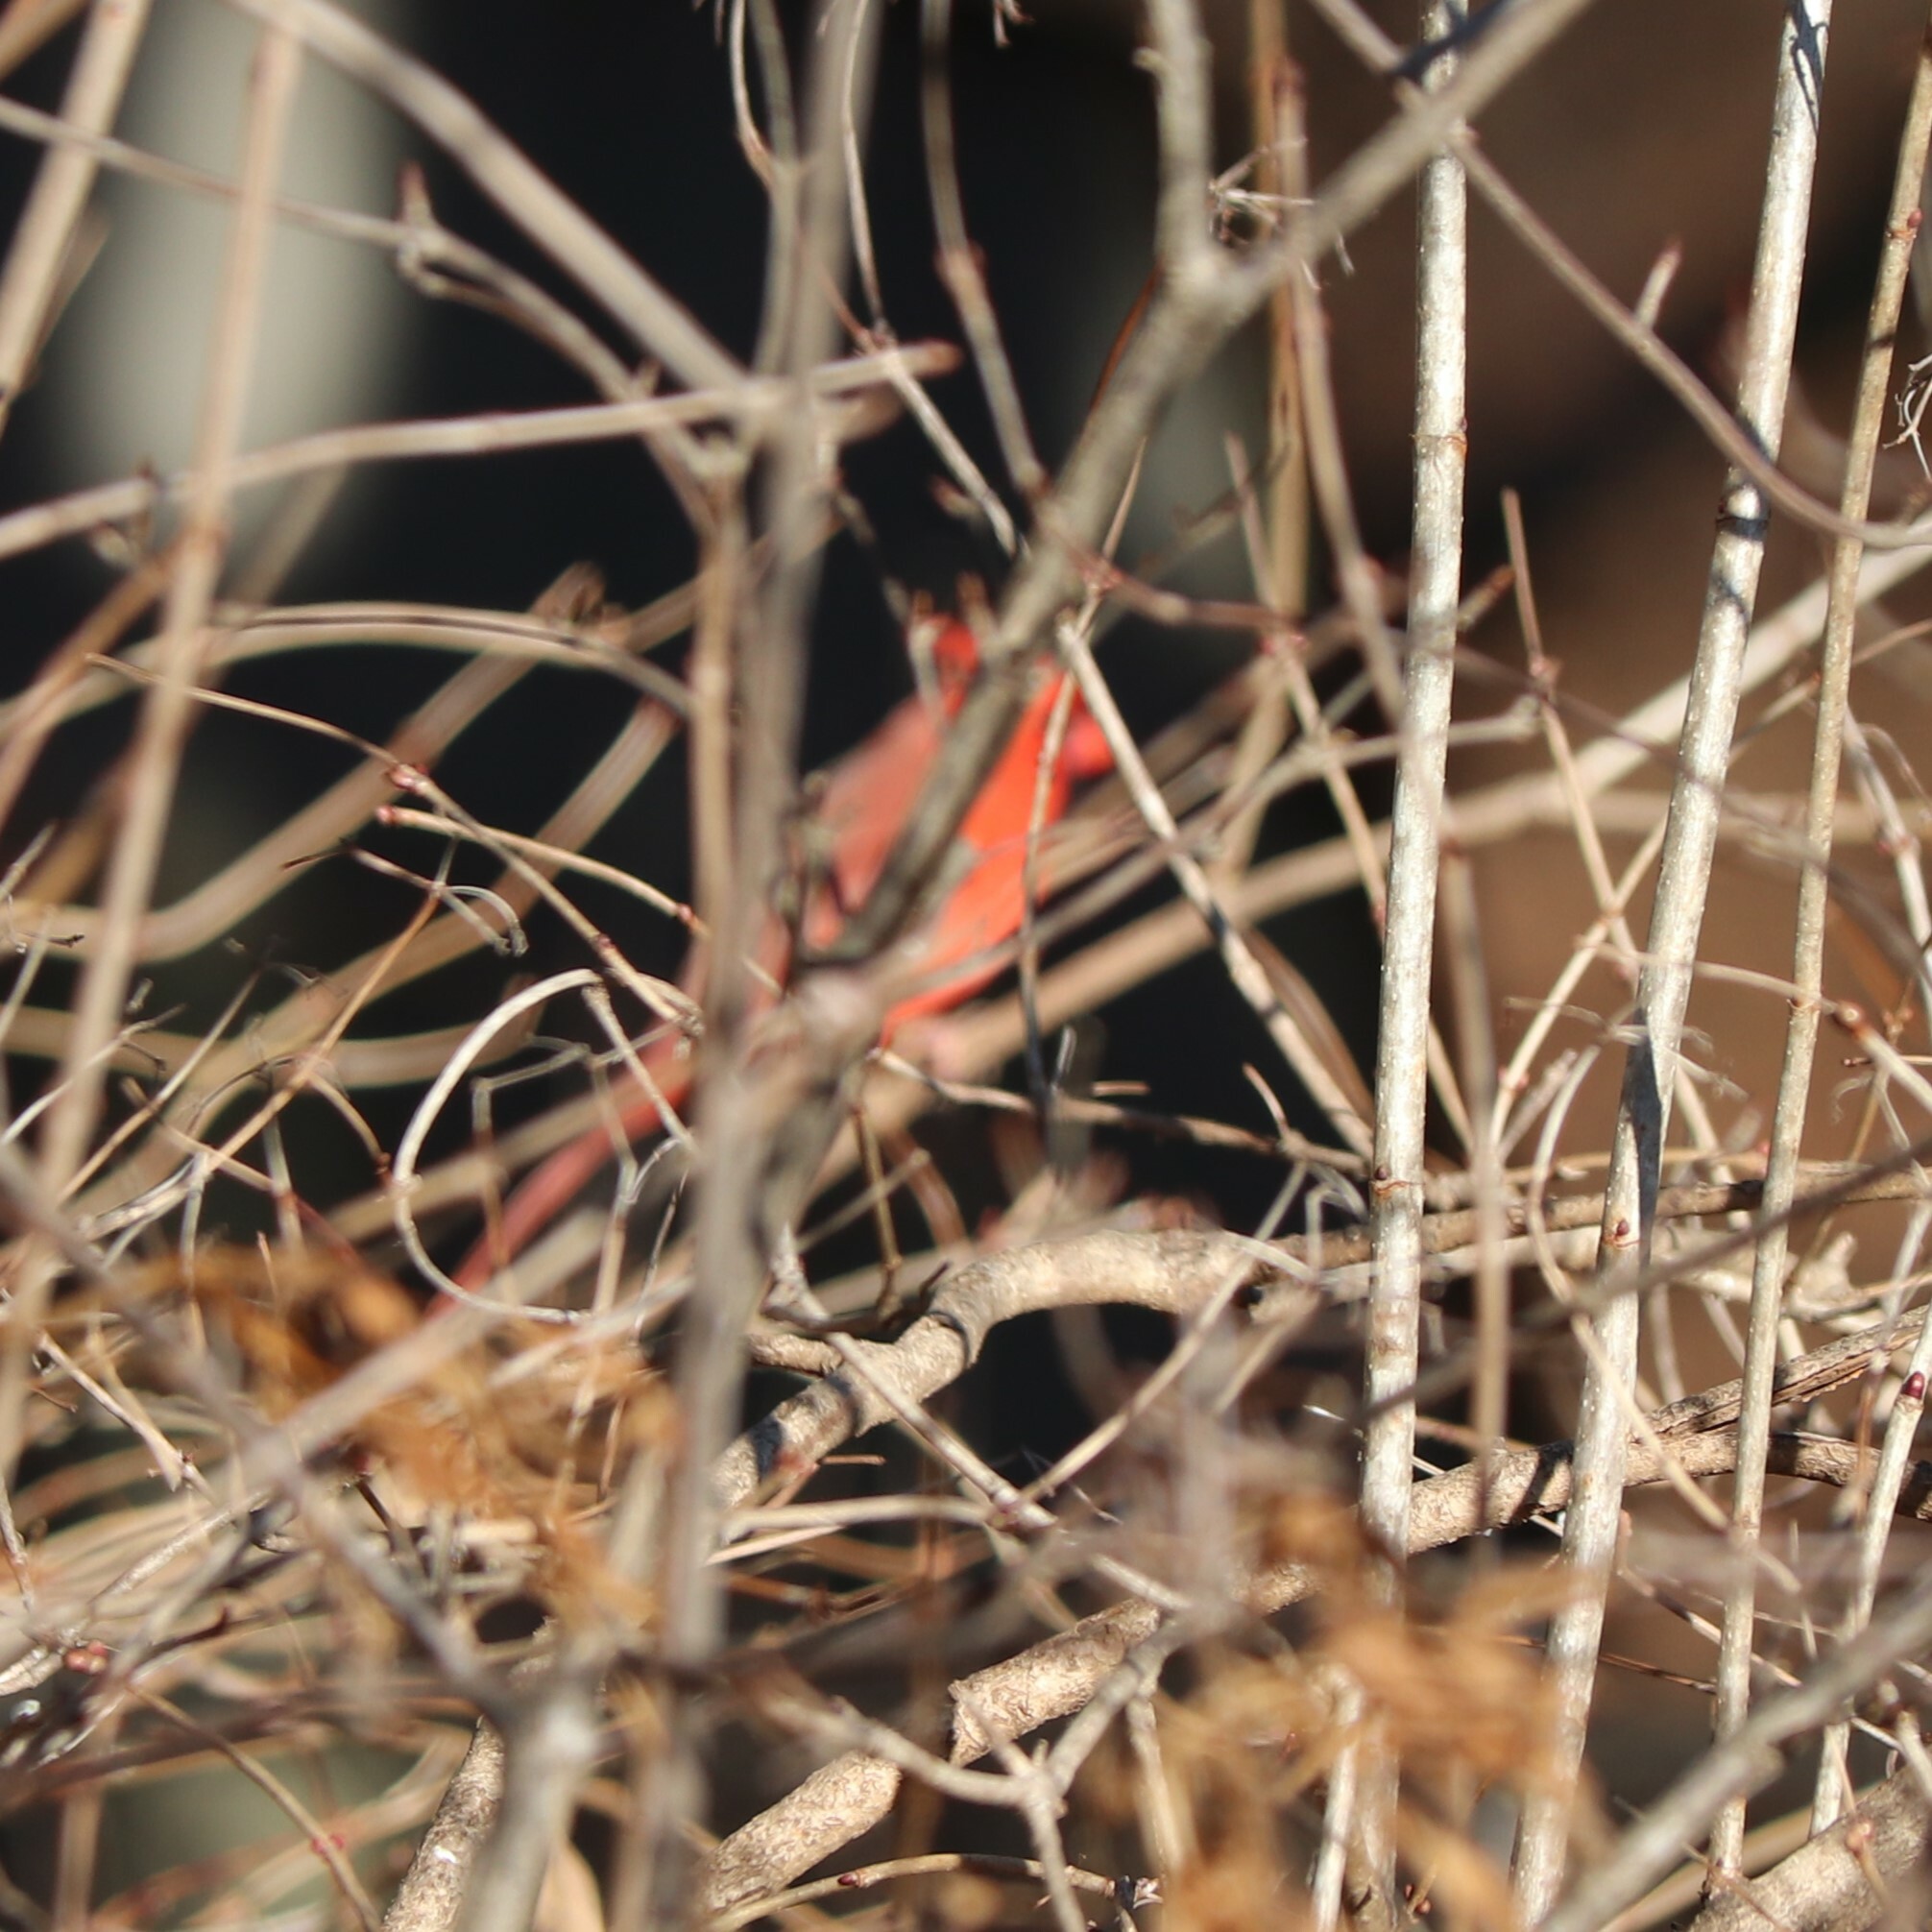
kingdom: Animalia
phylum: Chordata
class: Aves
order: Passeriformes
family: Cardinalidae
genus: Cardinalis
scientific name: Cardinalis cardinalis
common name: Northern cardinal
